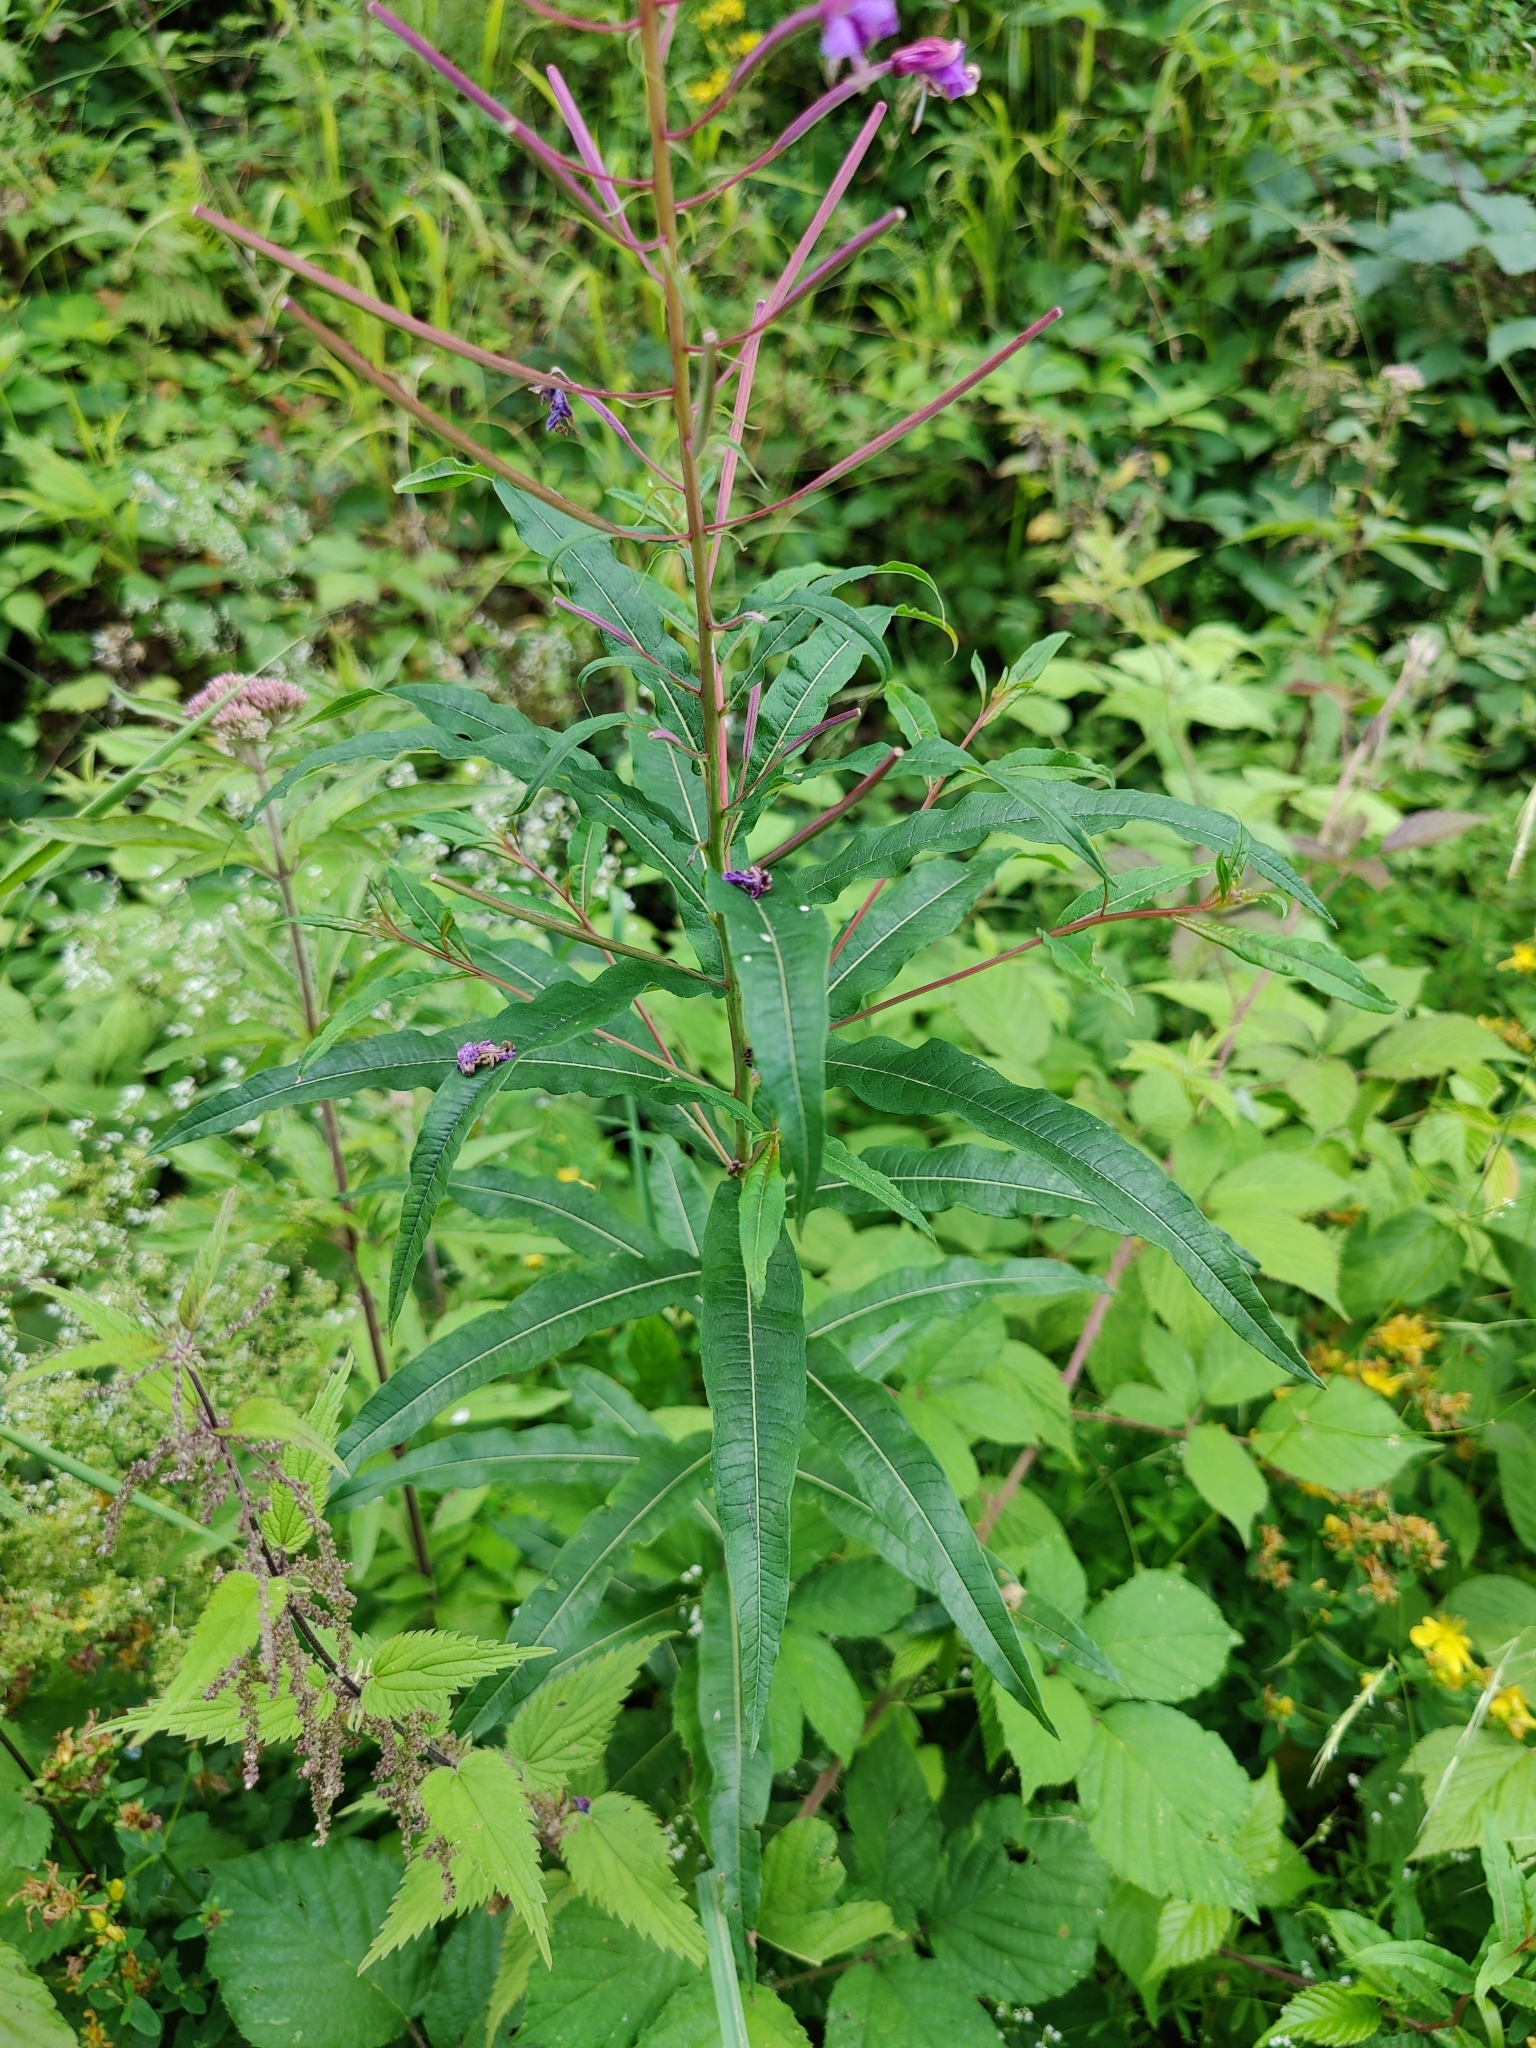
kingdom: Plantae
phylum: Tracheophyta
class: Magnoliopsida
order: Myrtales
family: Onagraceae
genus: Chamaenerion
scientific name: Chamaenerion angustifolium
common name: Fireweed
